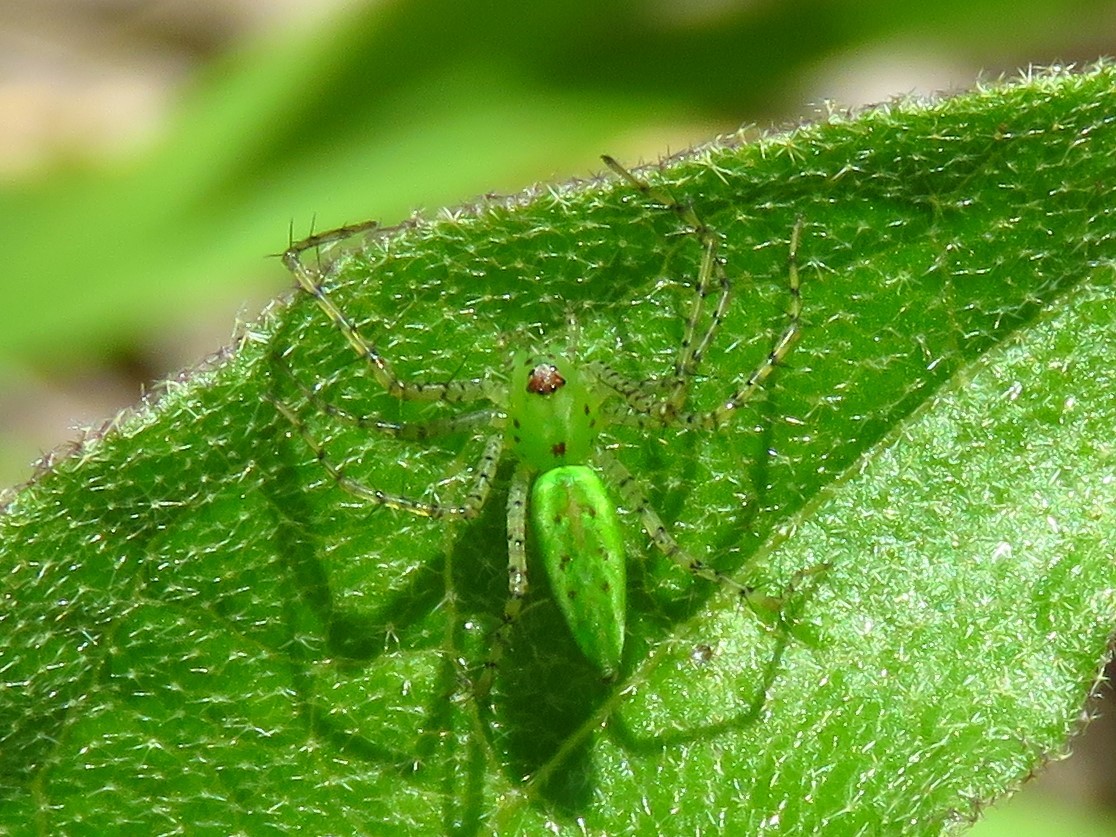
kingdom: Animalia
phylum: Arthropoda
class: Arachnida
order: Araneae
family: Oxyopidae
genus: Peucetia
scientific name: Peucetia viridans
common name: Lynx spiders
